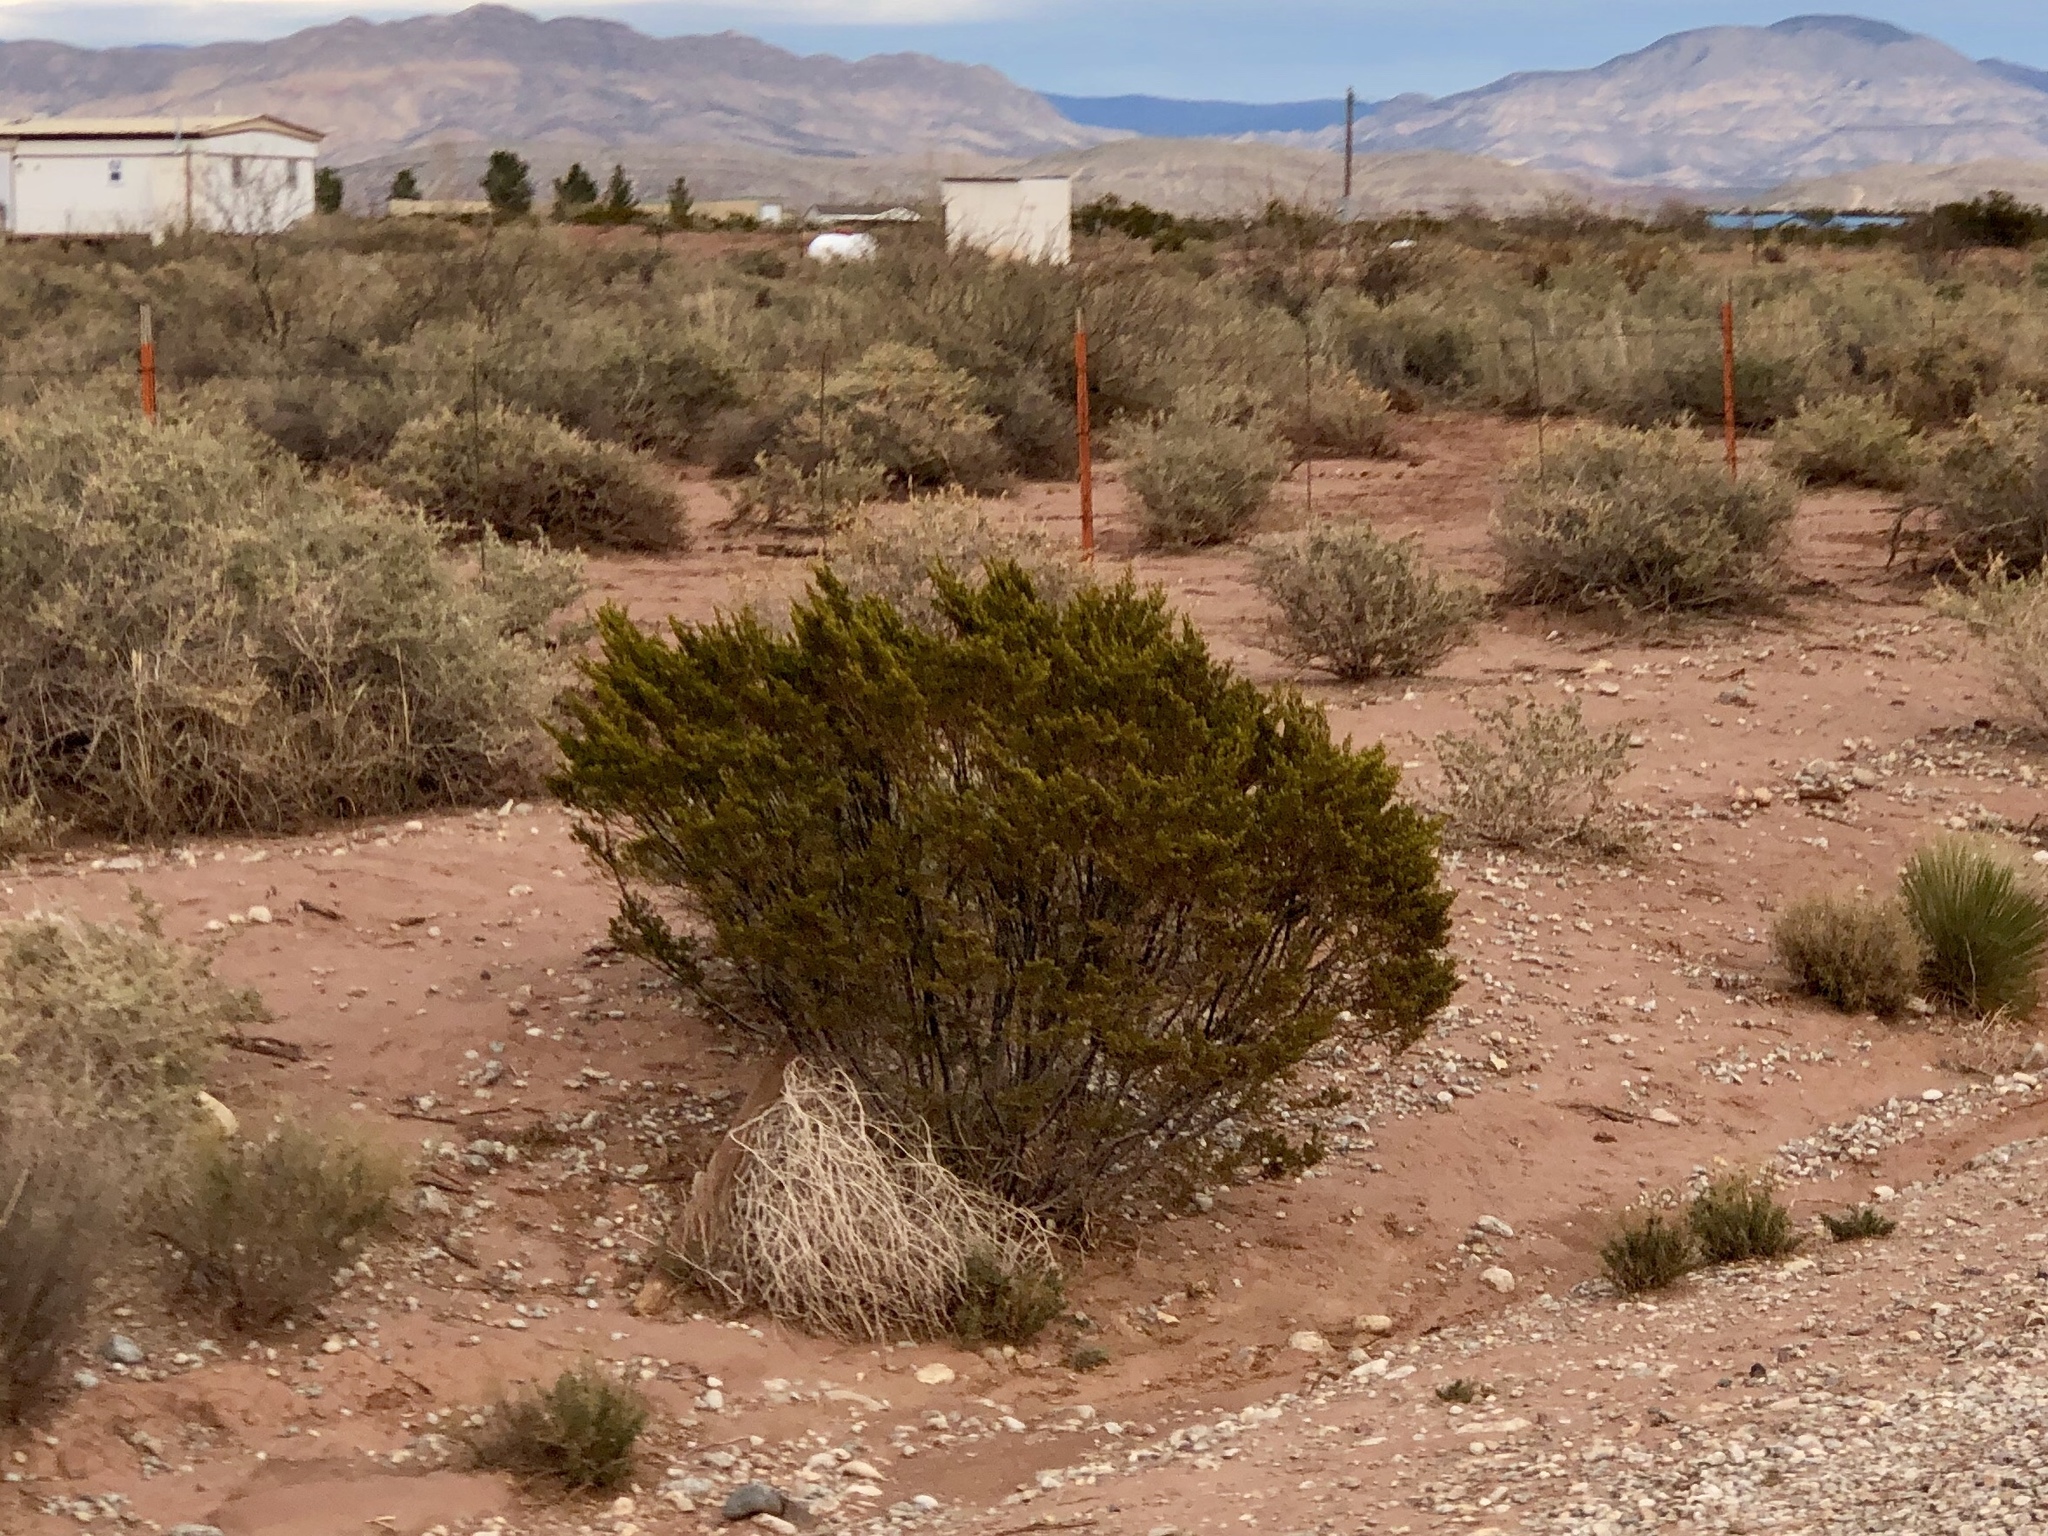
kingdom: Plantae
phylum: Tracheophyta
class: Magnoliopsida
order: Zygophyllales
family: Zygophyllaceae
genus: Larrea
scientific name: Larrea tridentata
